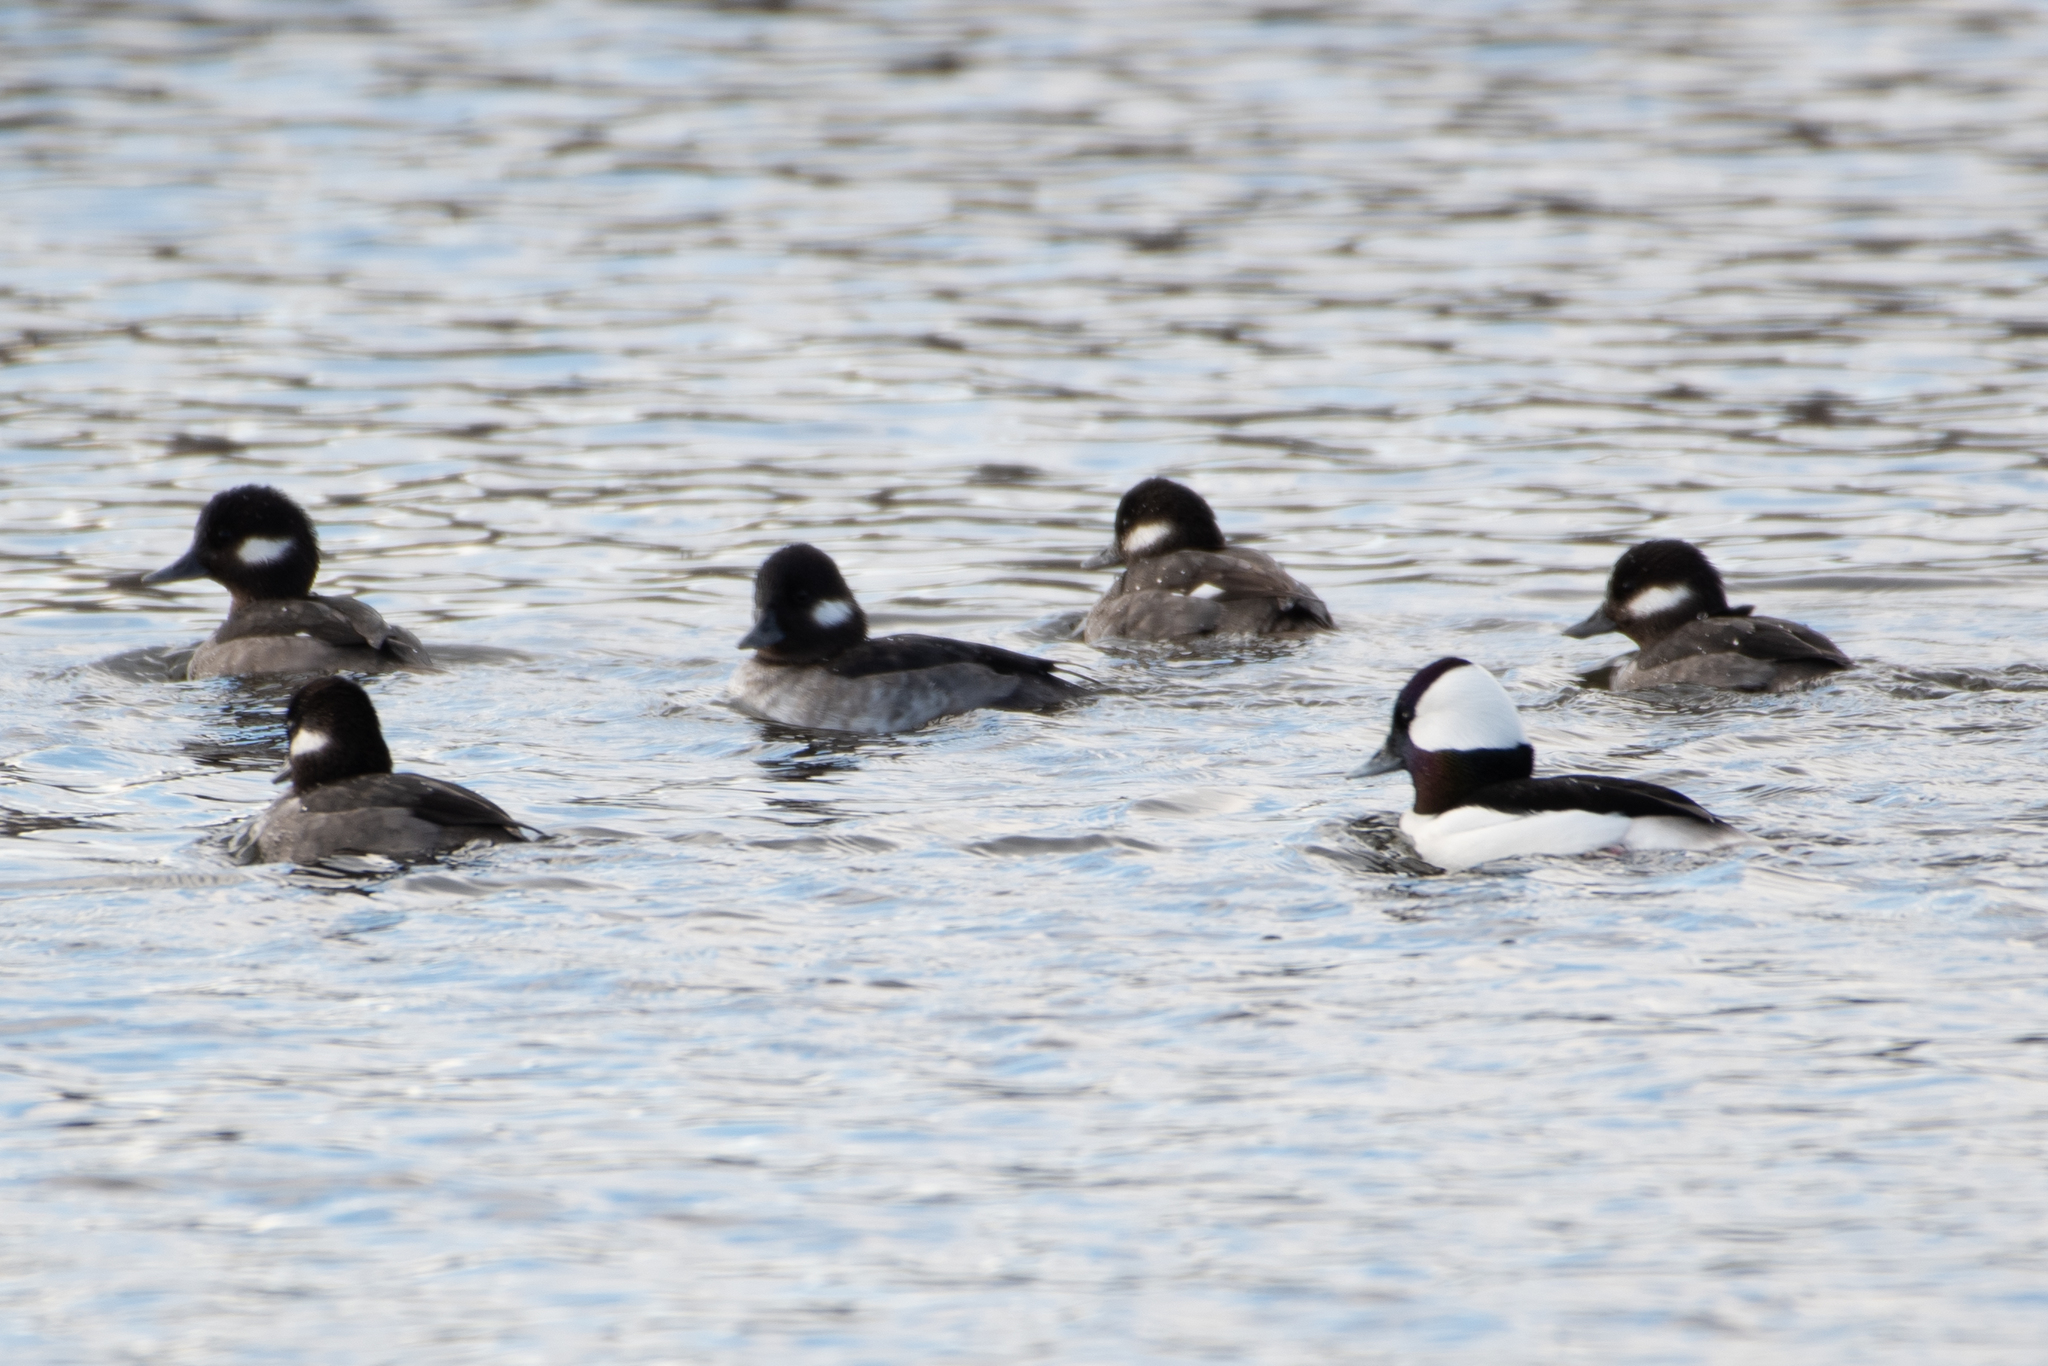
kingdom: Animalia
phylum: Chordata
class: Aves
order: Anseriformes
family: Anatidae
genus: Bucephala
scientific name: Bucephala albeola
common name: Bufflehead
